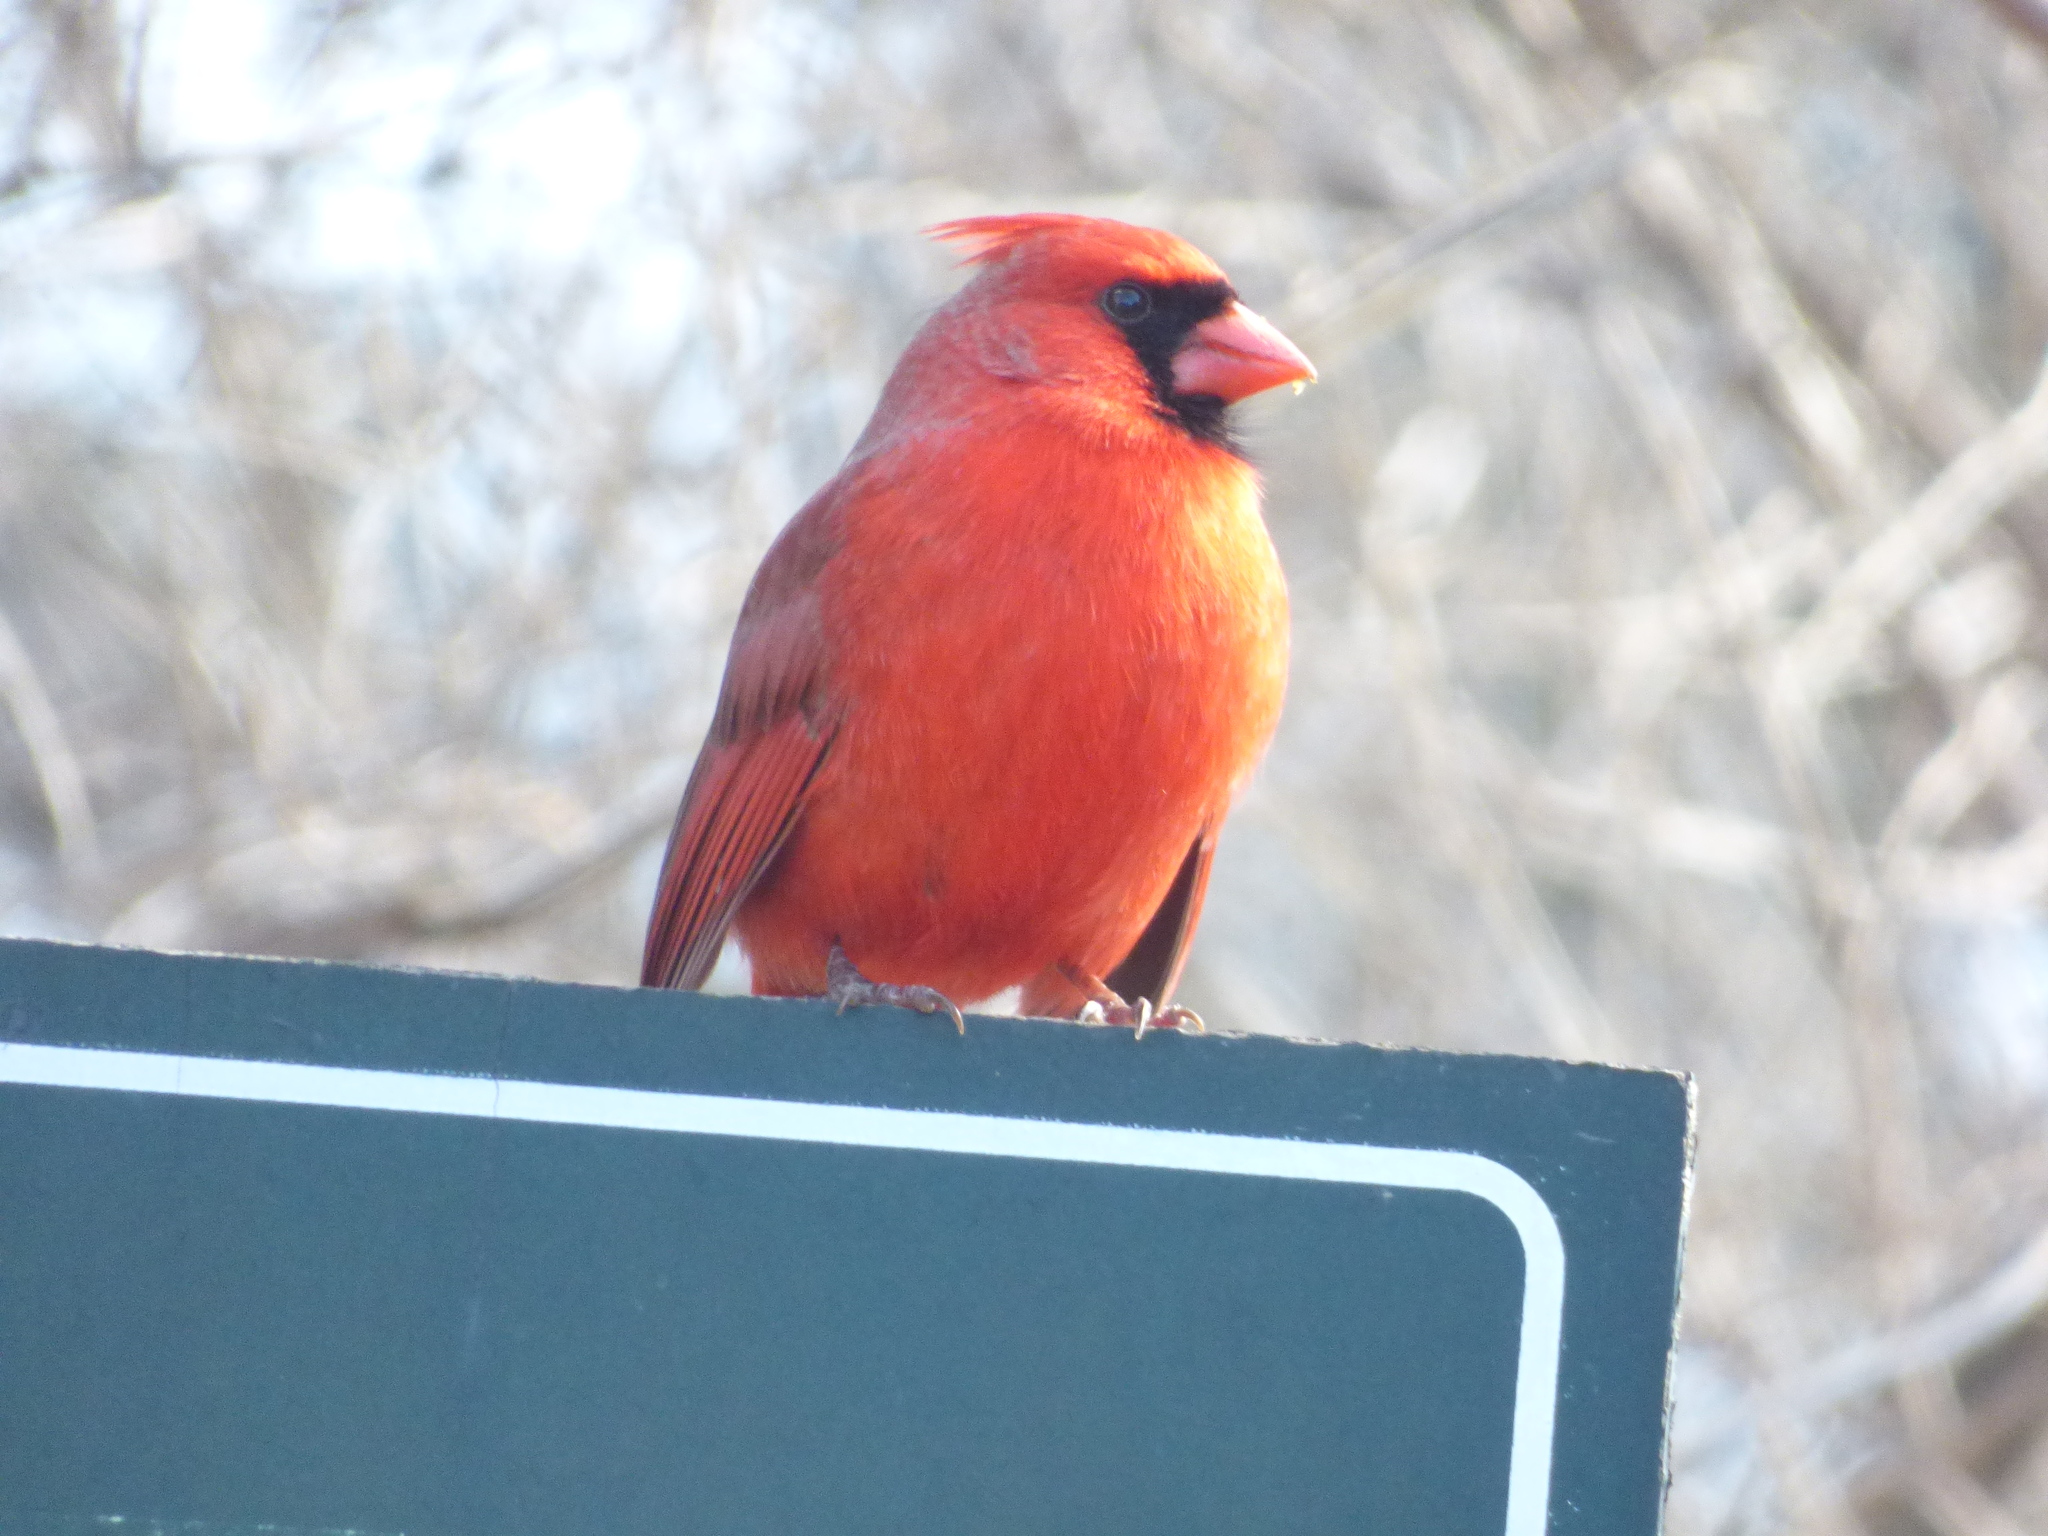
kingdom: Animalia
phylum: Chordata
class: Aves
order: Passeriformes
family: Cardinalidae
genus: Cardinalis
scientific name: Cardinalis cardinalis
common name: Northern cardinal
